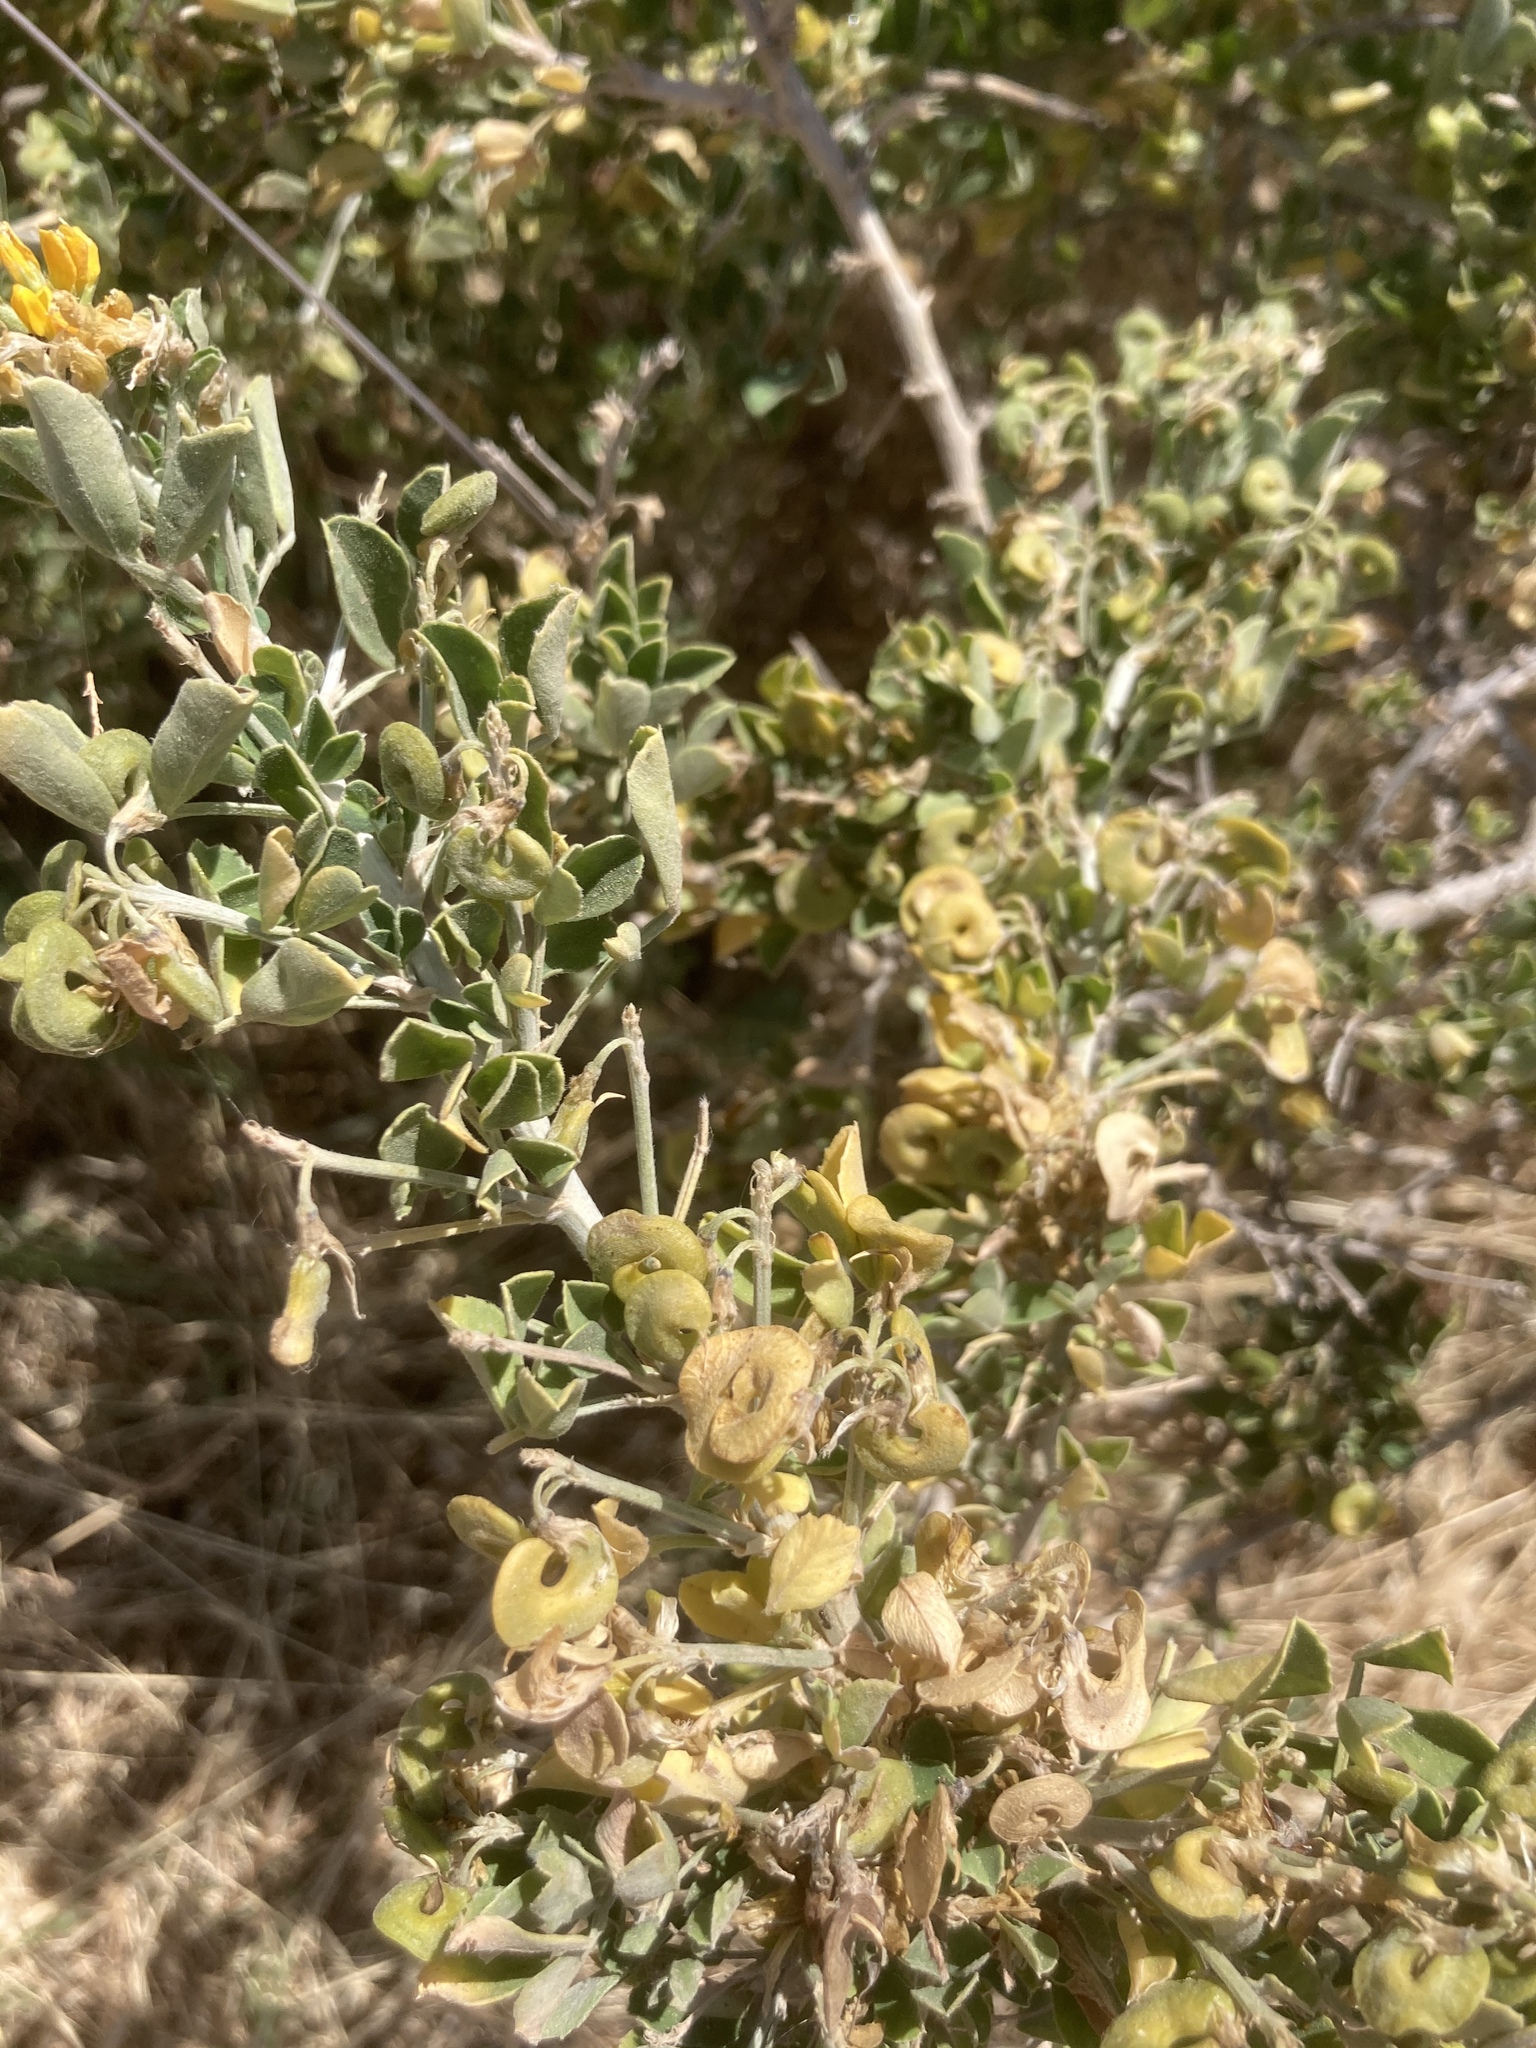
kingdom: Plantae
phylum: Tracheophyta
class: Magnoliopsida
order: Fabales
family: Fabaceae
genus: Medicago
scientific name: Medicago arborea
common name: Moon trefoil
